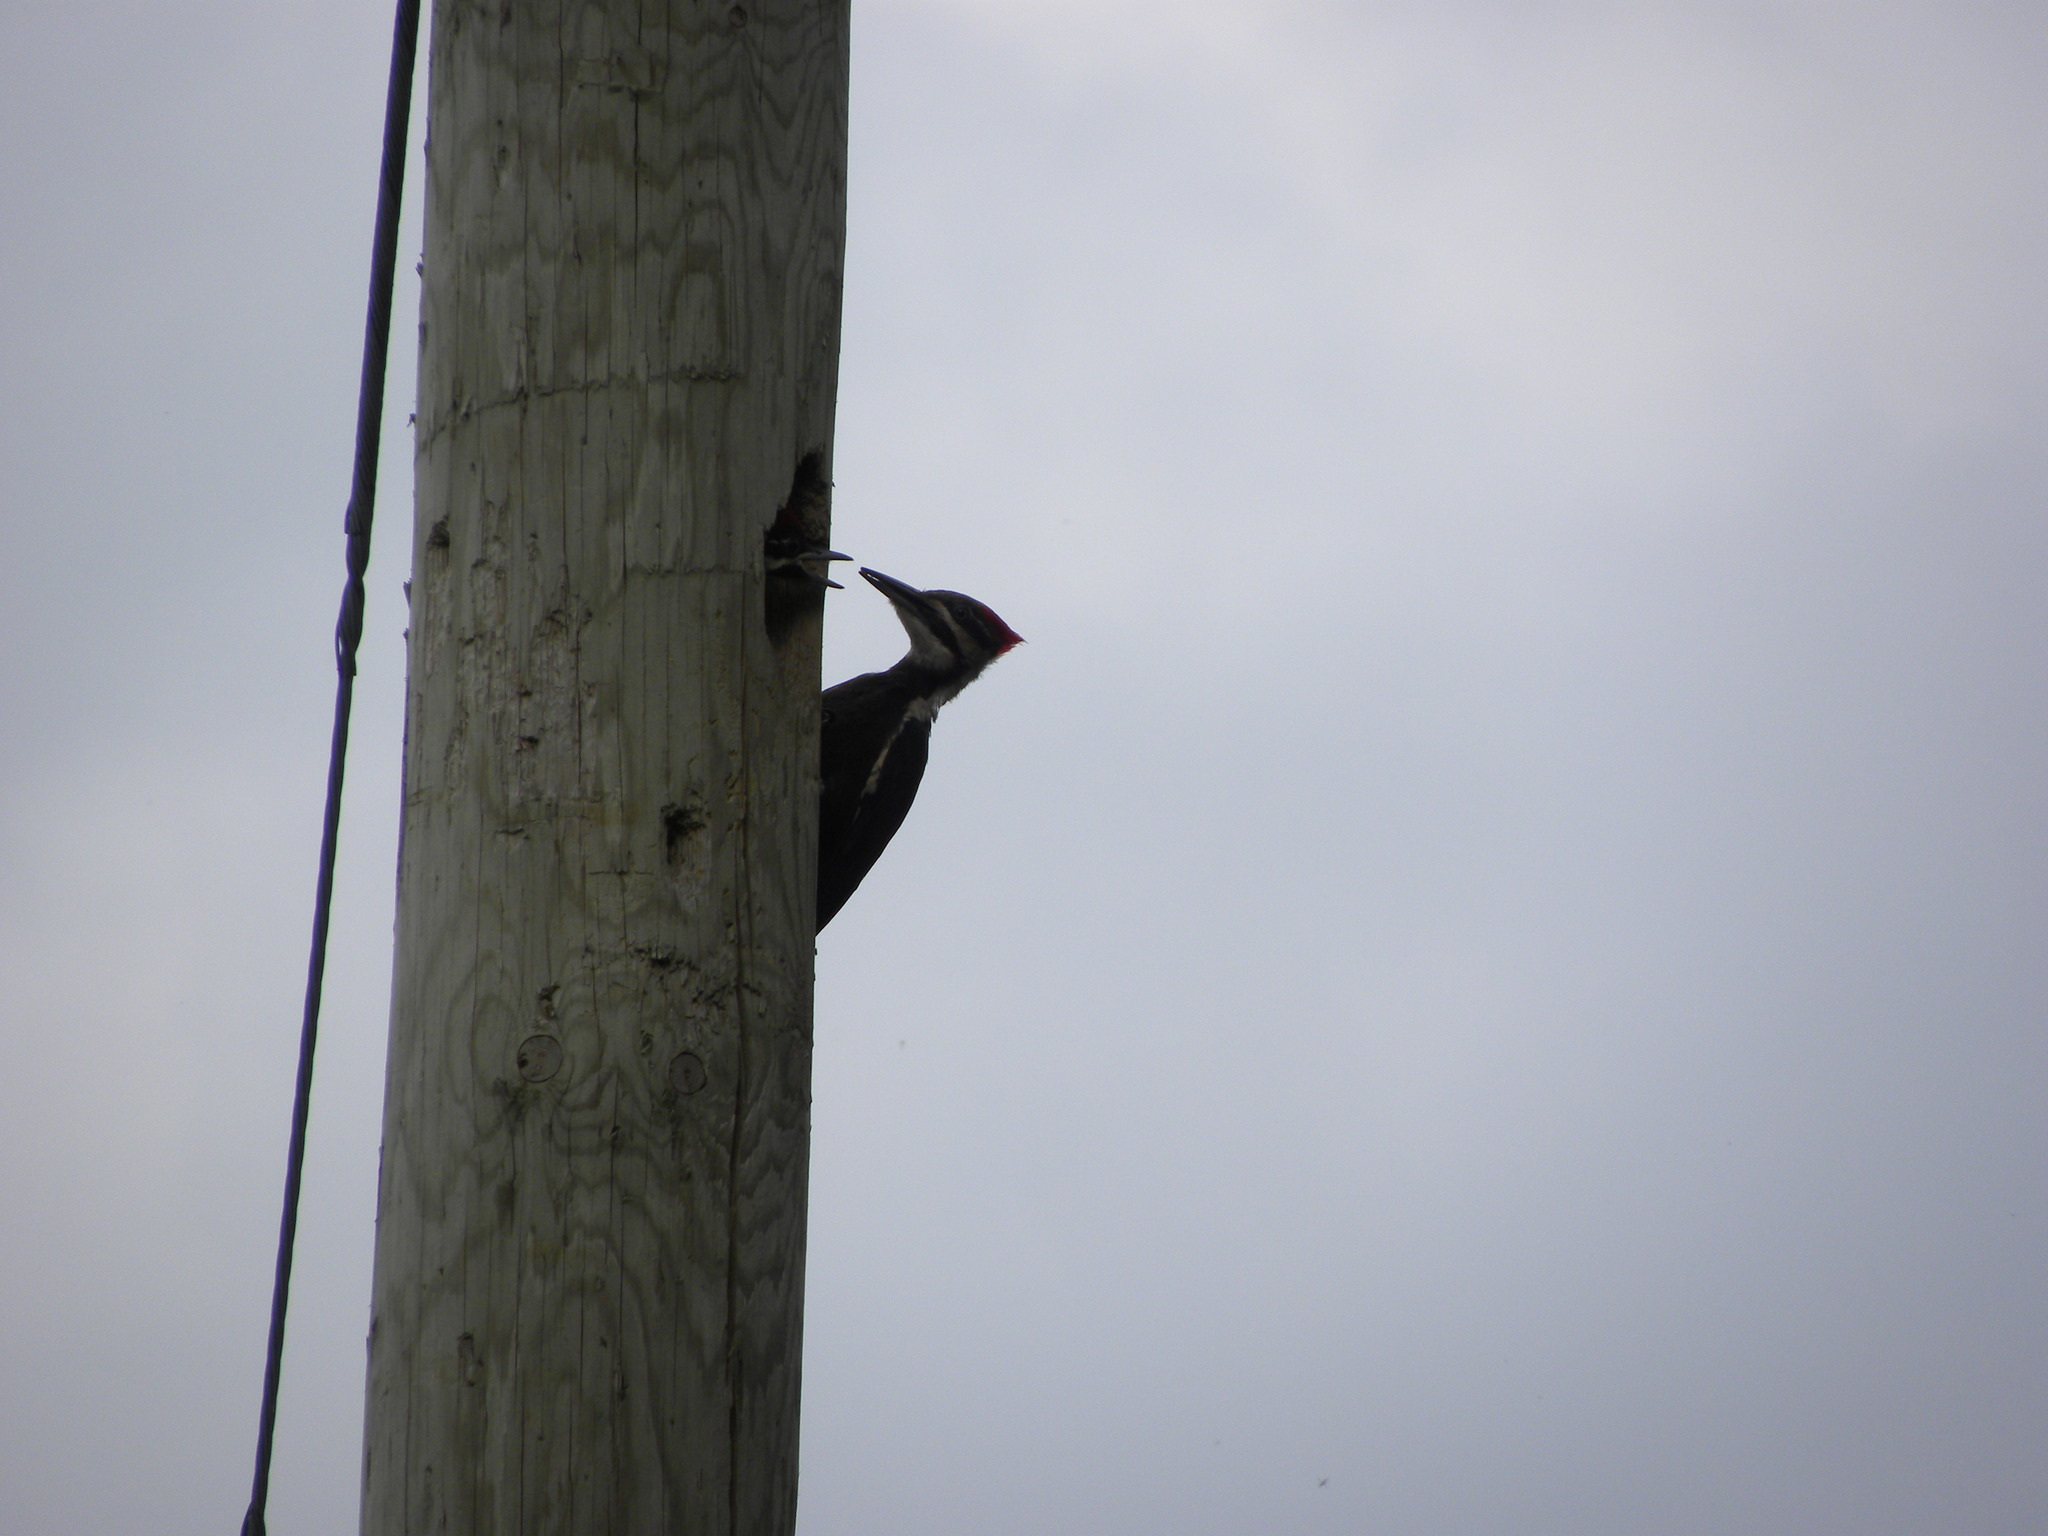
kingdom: Animalia
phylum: Chordata
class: Aves
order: Piciformes
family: Picidae
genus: Dryocopus
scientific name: Dryocopus pileatus
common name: Pileated woodpecker
